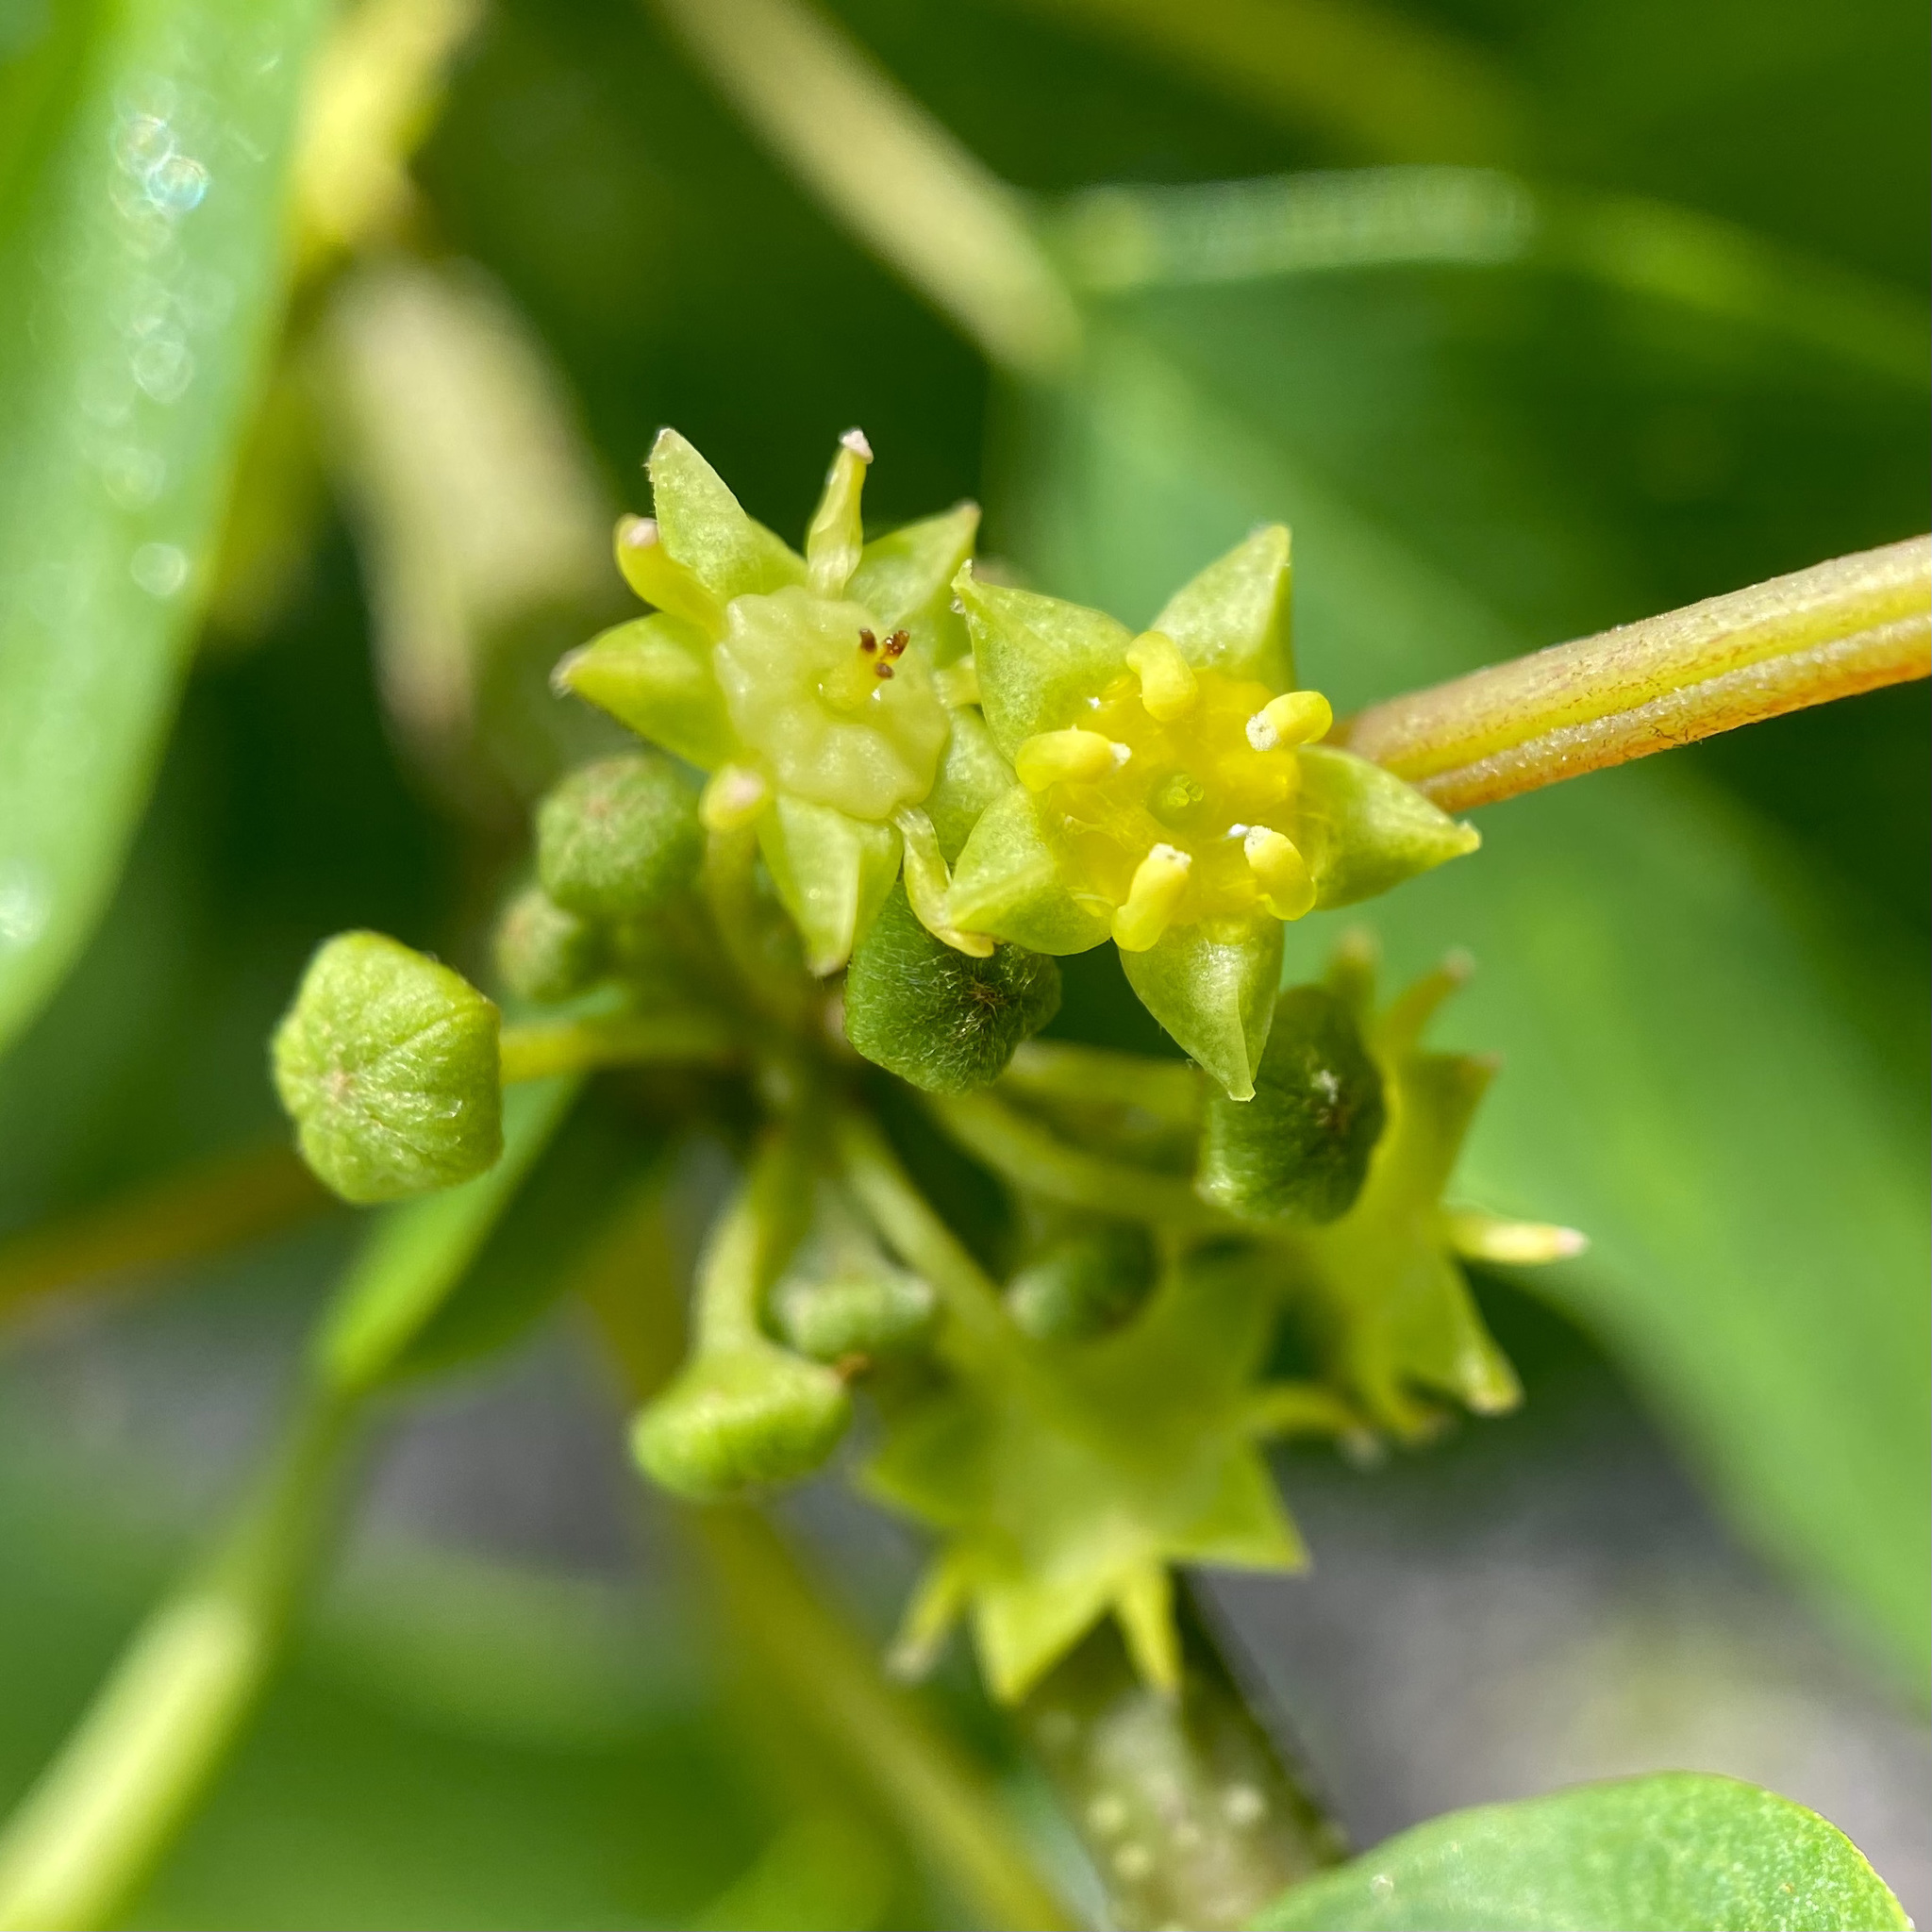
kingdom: Plantae
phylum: Tracheophyta
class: Magnoliopsida
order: Rosales
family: Rhamnaceae
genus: Colubrina
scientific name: Colubrina elliptica
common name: Soldierwood
